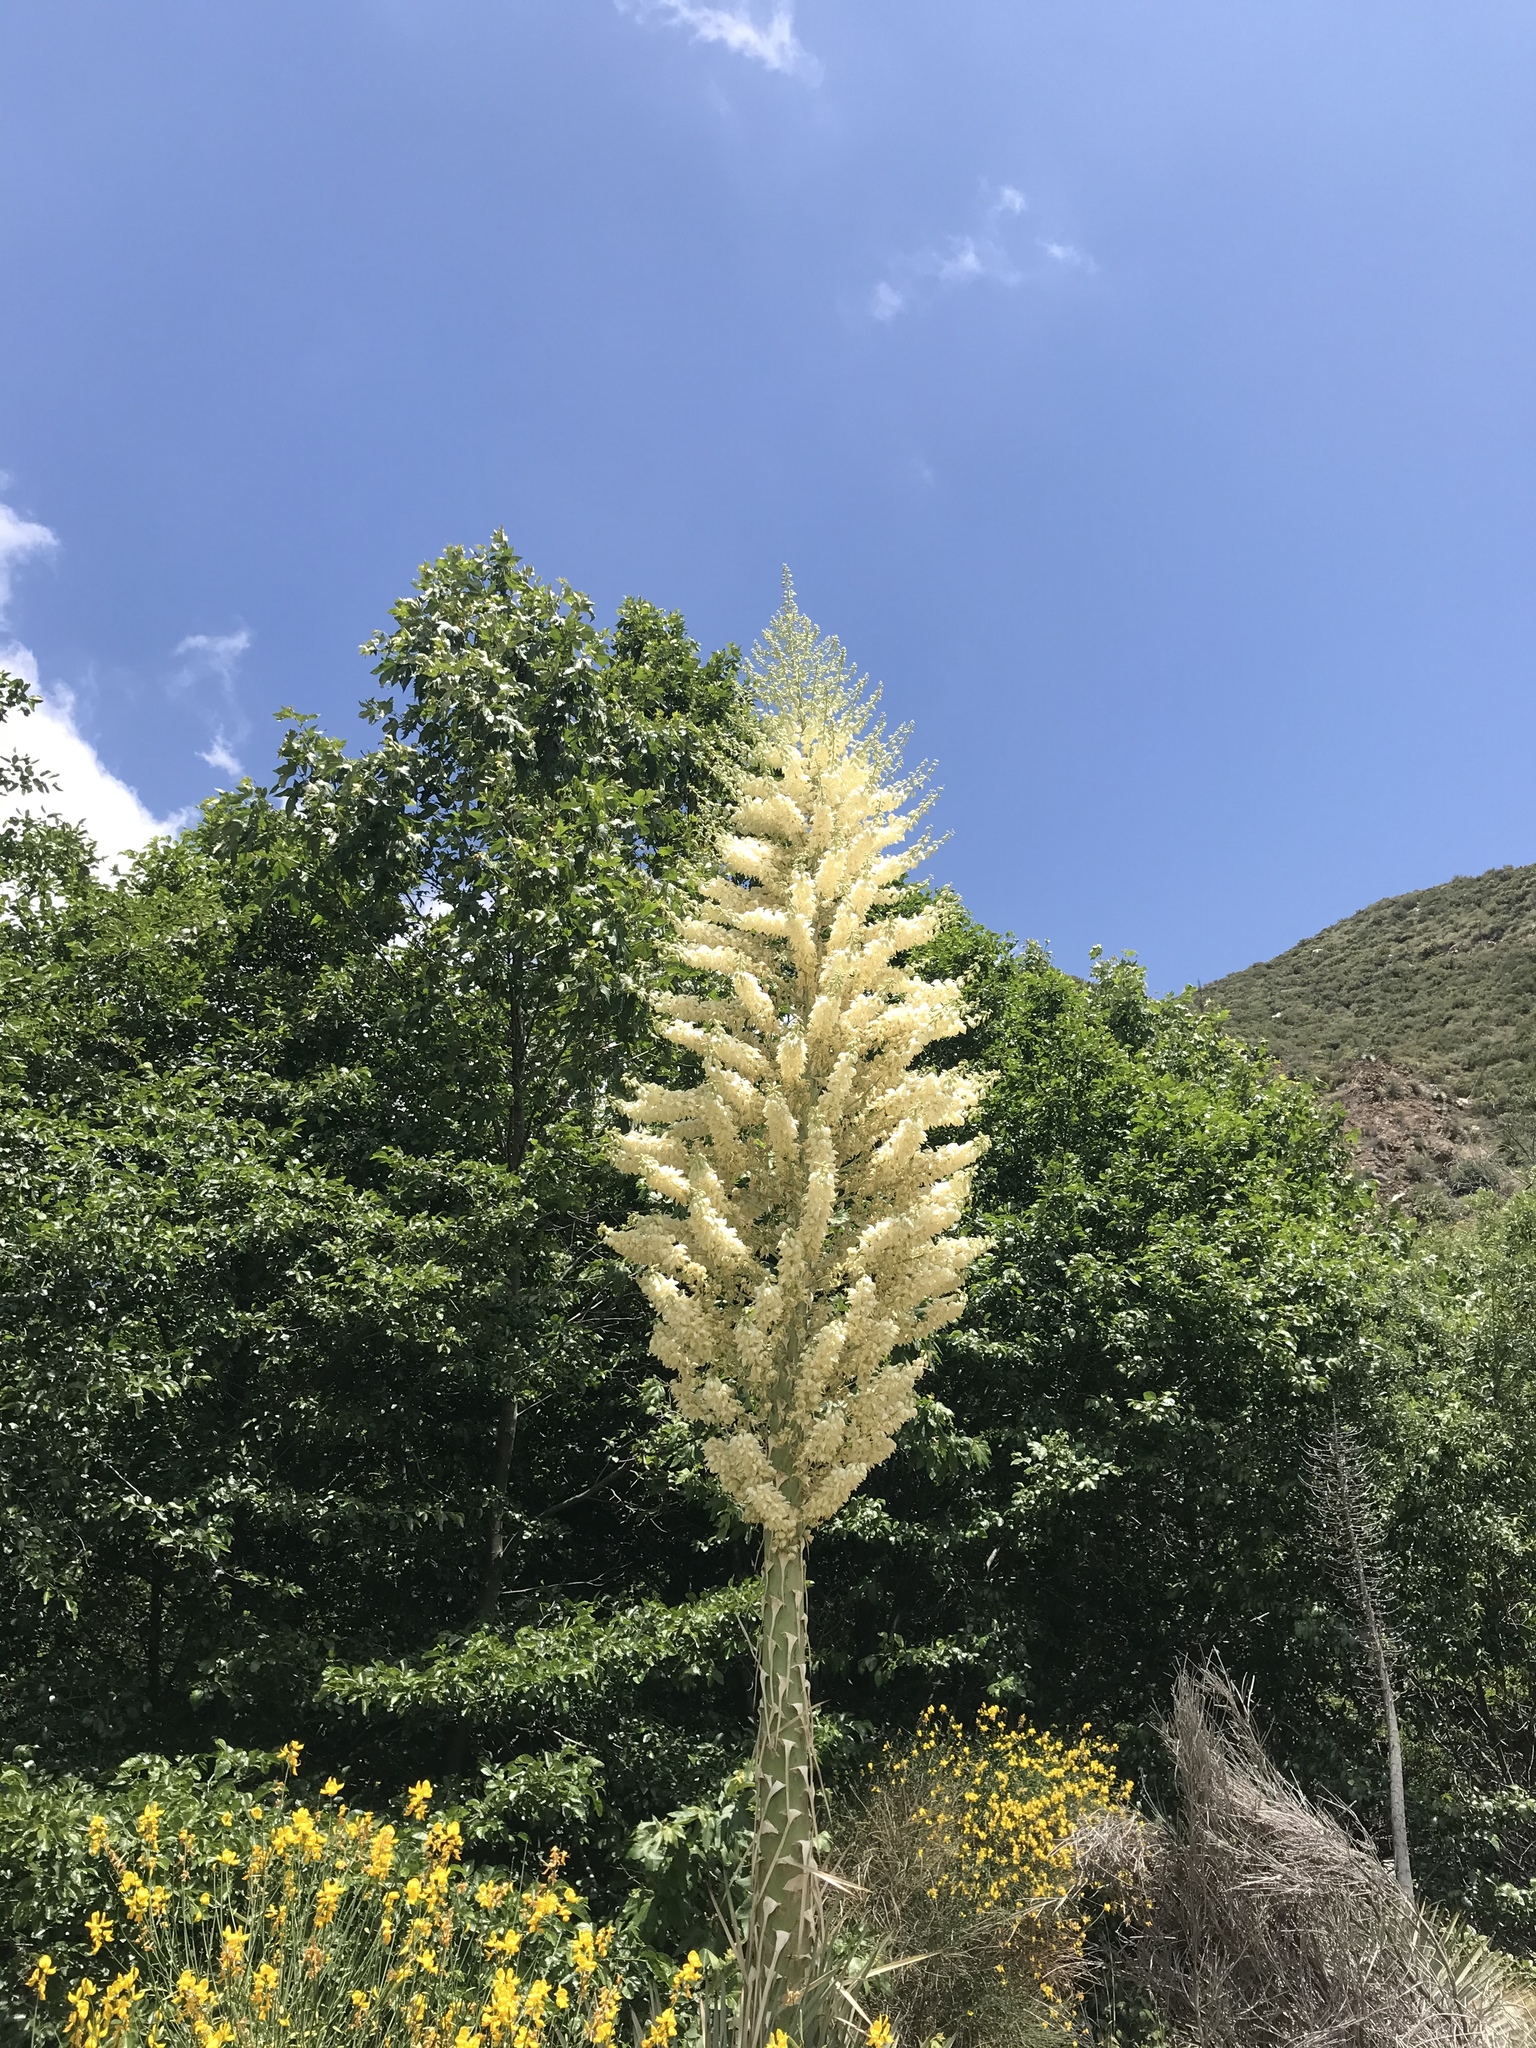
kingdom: Plantae
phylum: Tracheophyta
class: Liliopsida
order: Asparagales
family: Asparagaceae
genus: Hesperoyucca
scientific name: Hesperoyucca whipplei
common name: Our lord's-candle
